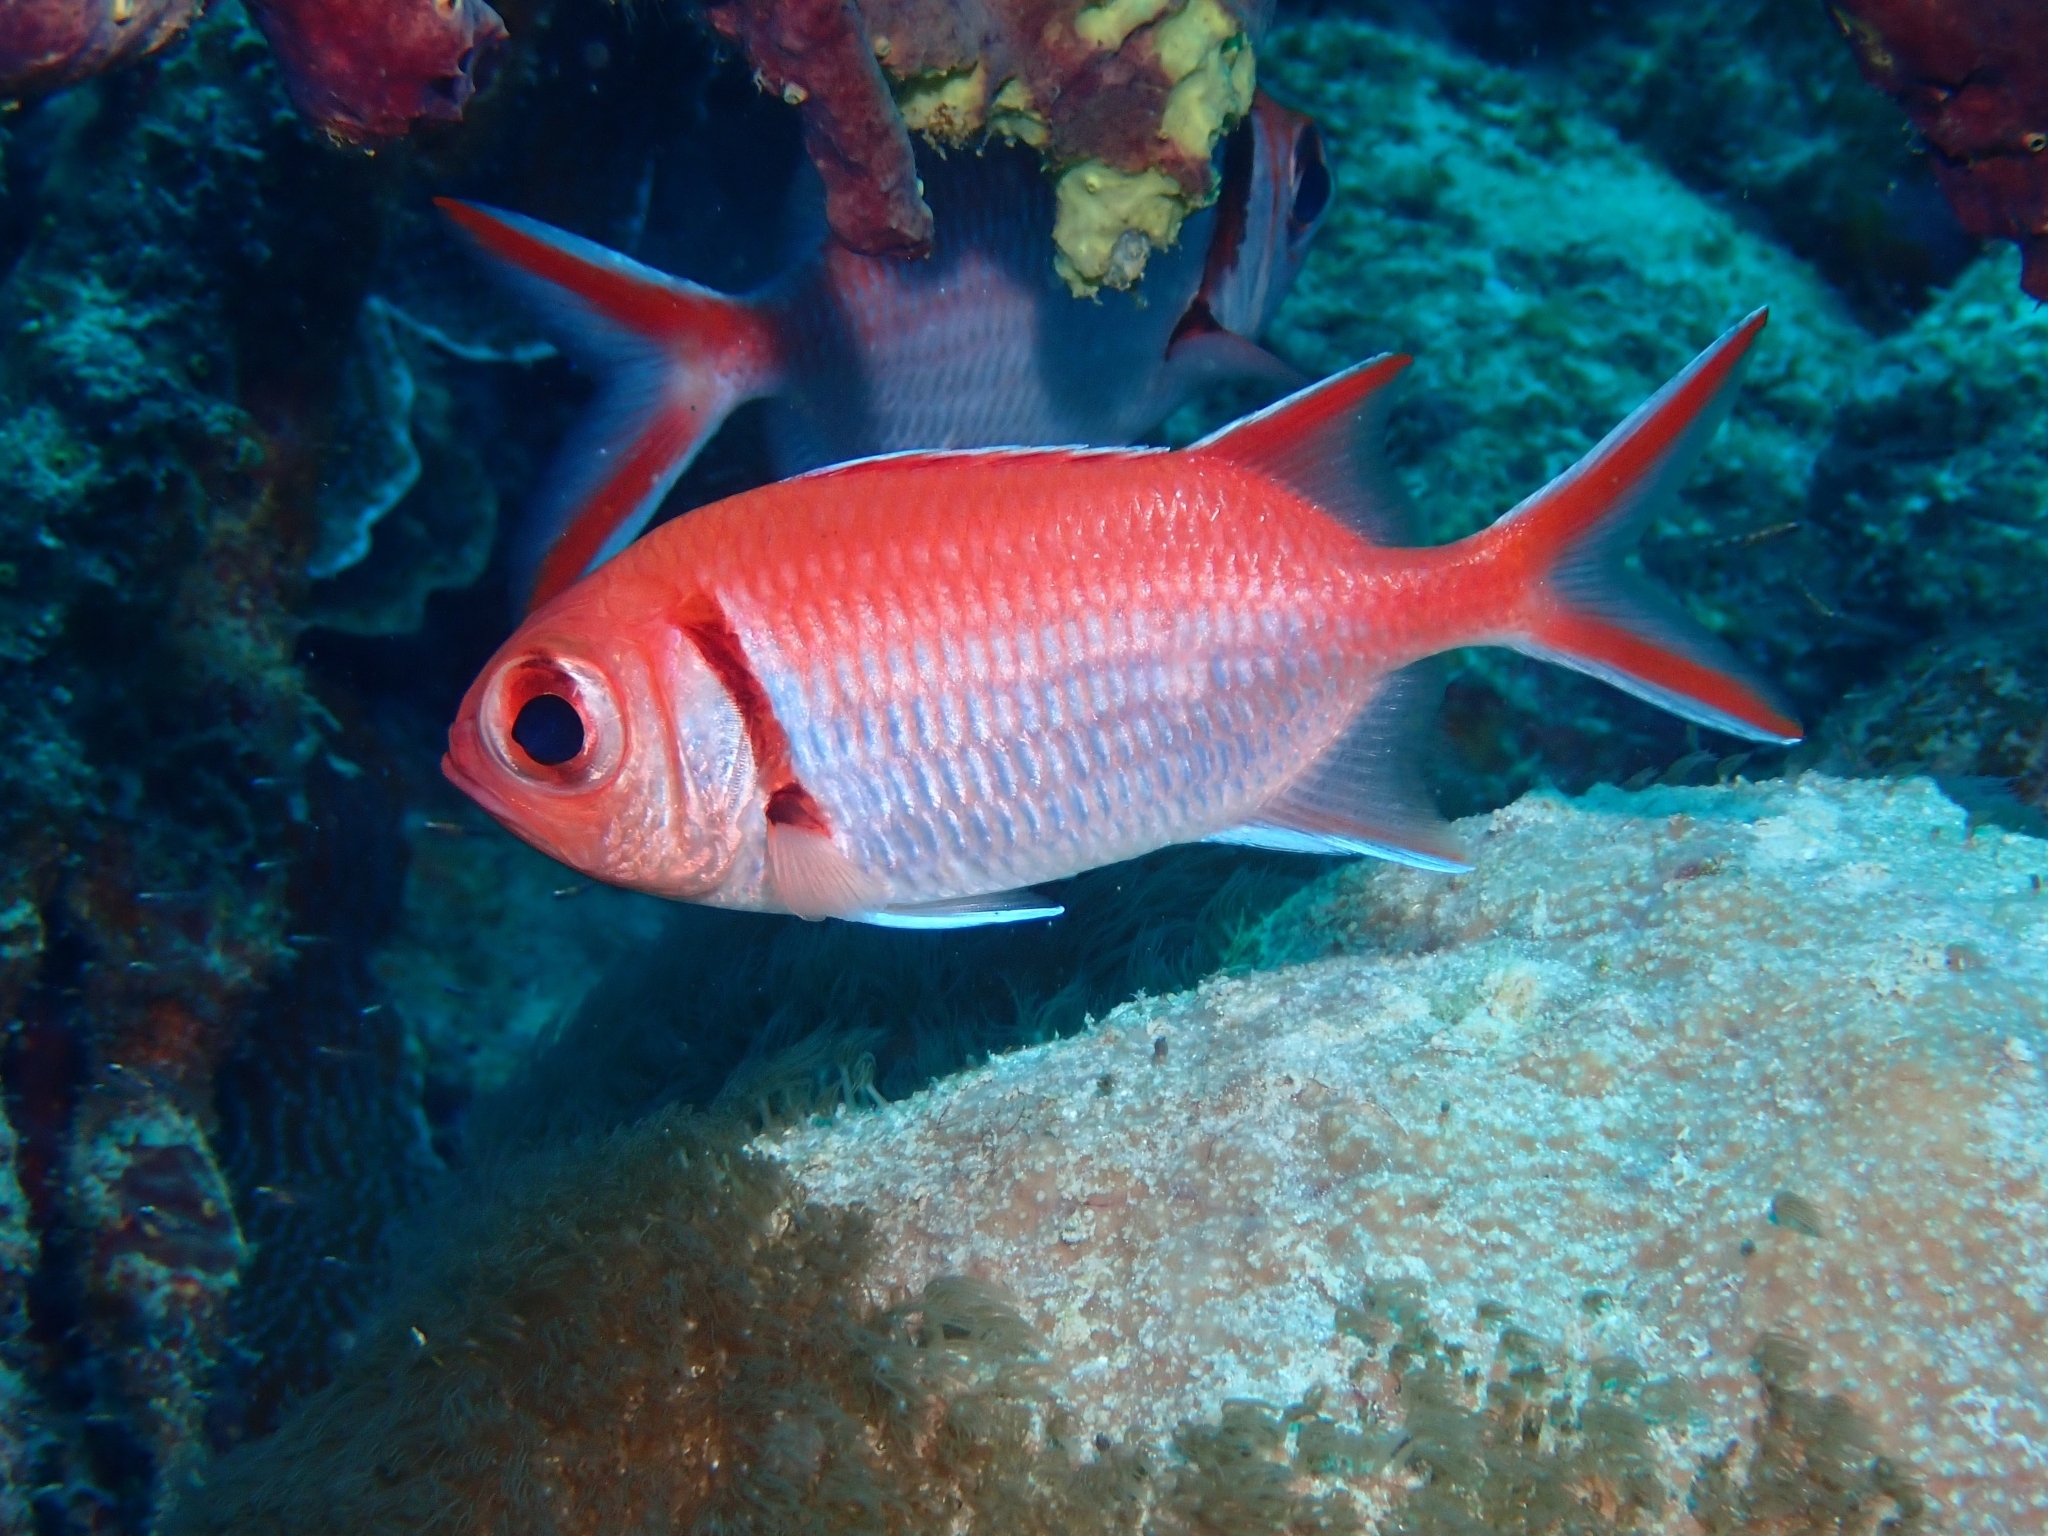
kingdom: Animalia
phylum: Chordata
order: Beryciformes
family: Holocentridae
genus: Myripristis
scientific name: Myripristis jacobus
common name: Blackbar soldierfish
